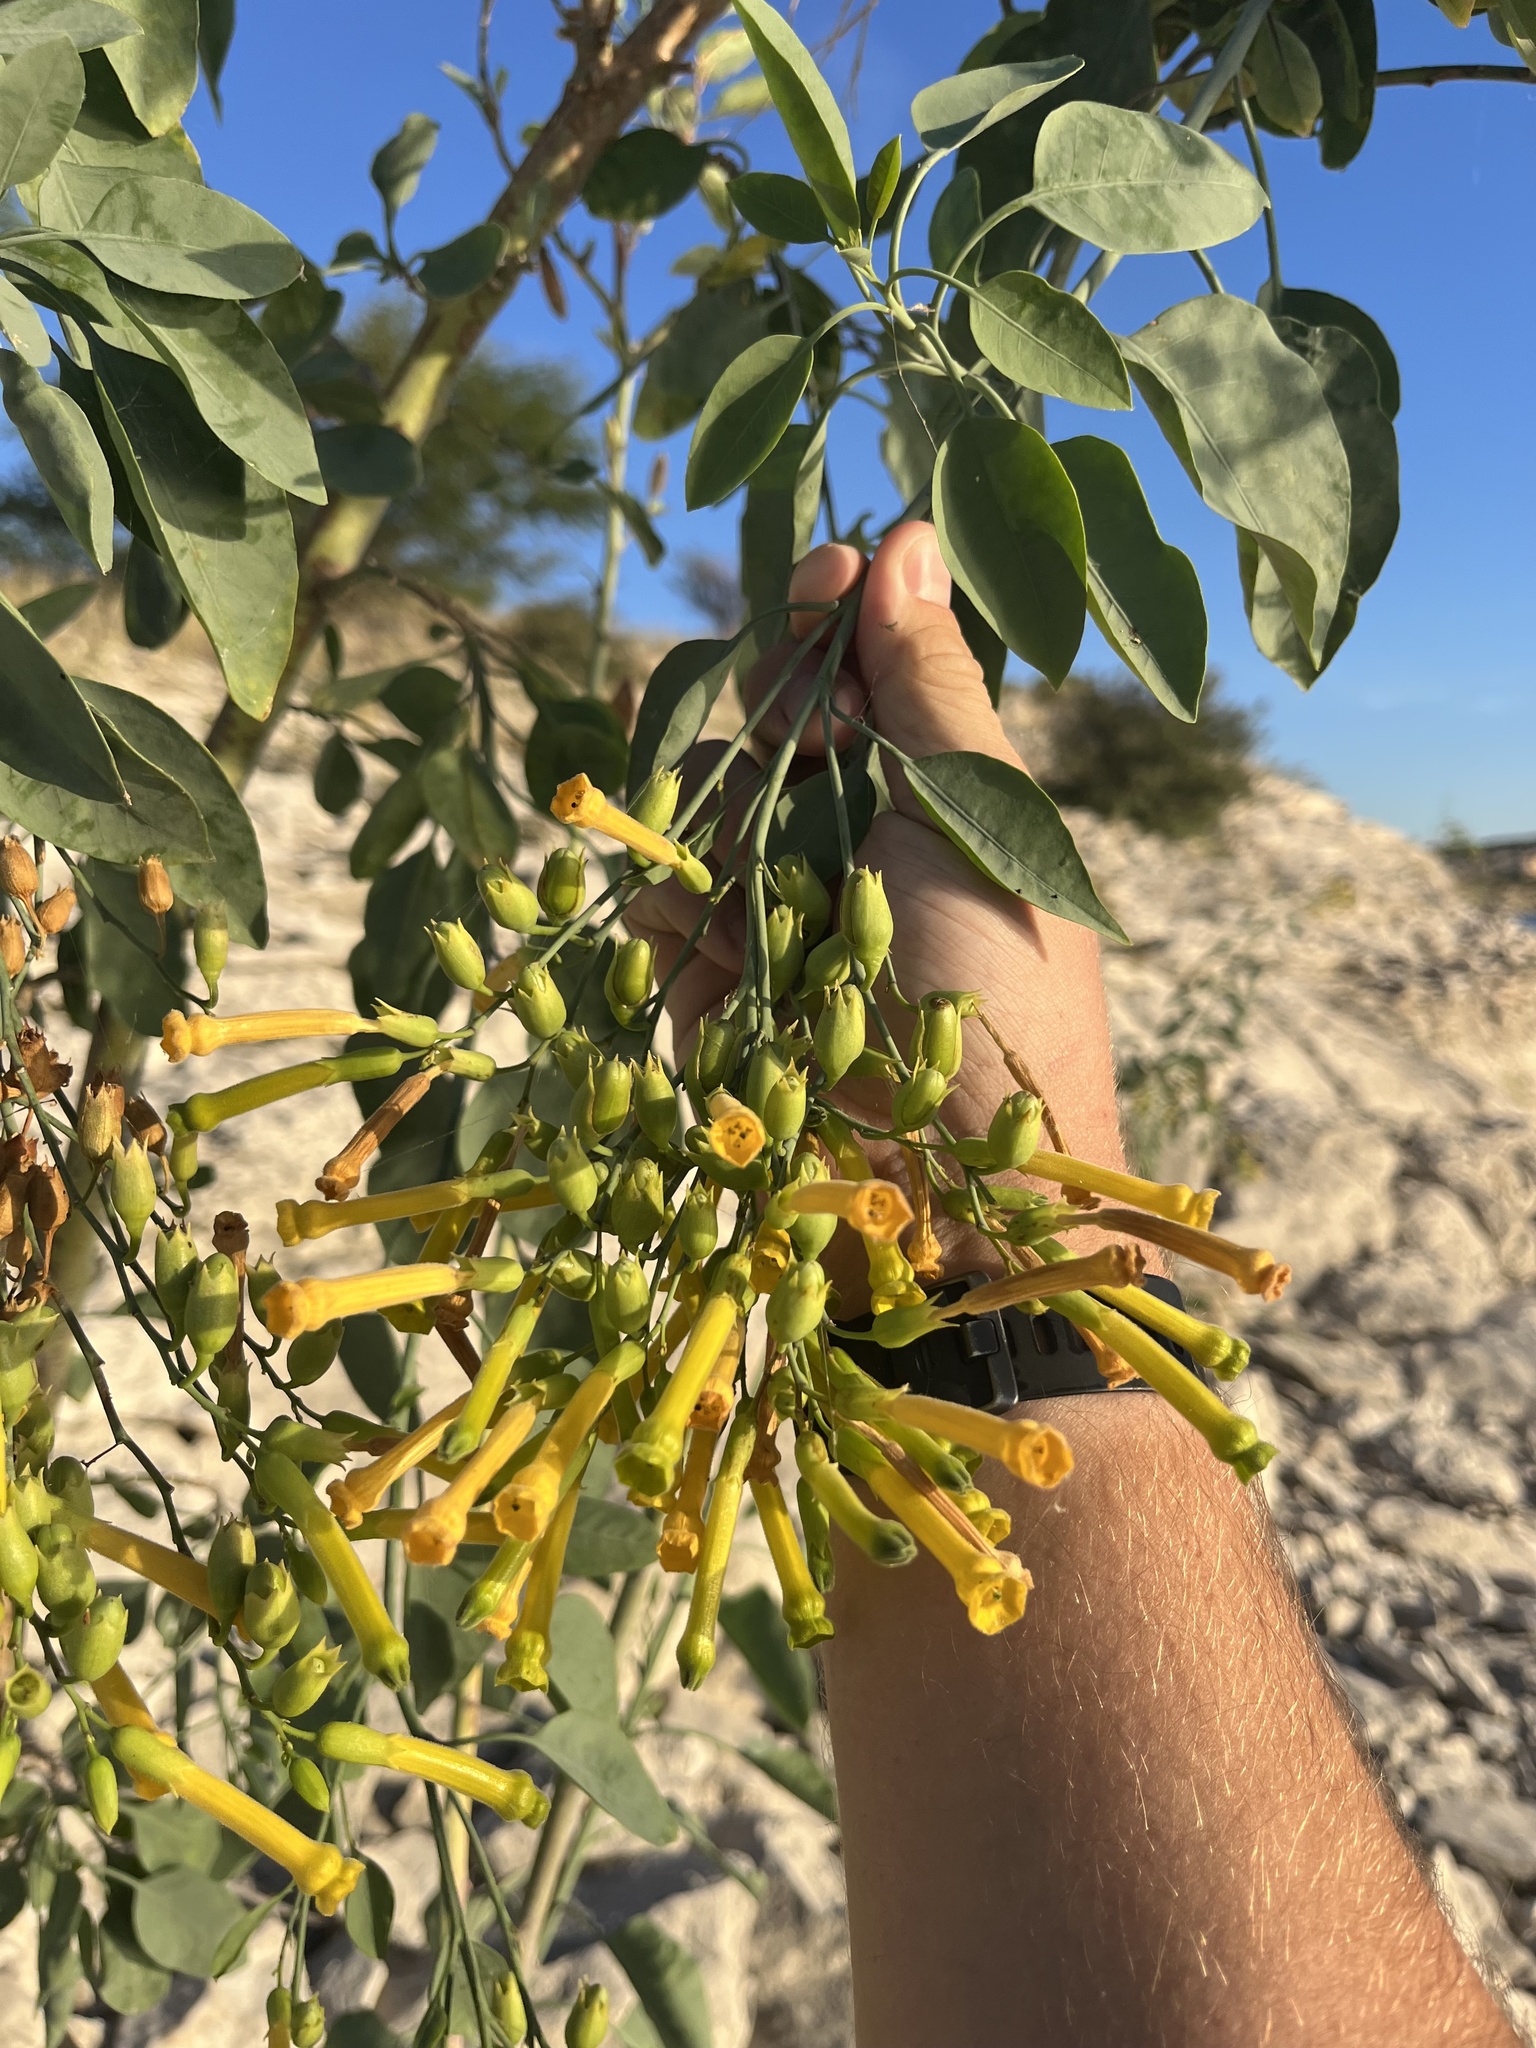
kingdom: Plantae
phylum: Tracheophyta
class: Magnoliopsida
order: Solanales
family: Solanaceae
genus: Nicotiana
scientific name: Nicotiana glauca
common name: Tree tobacco
